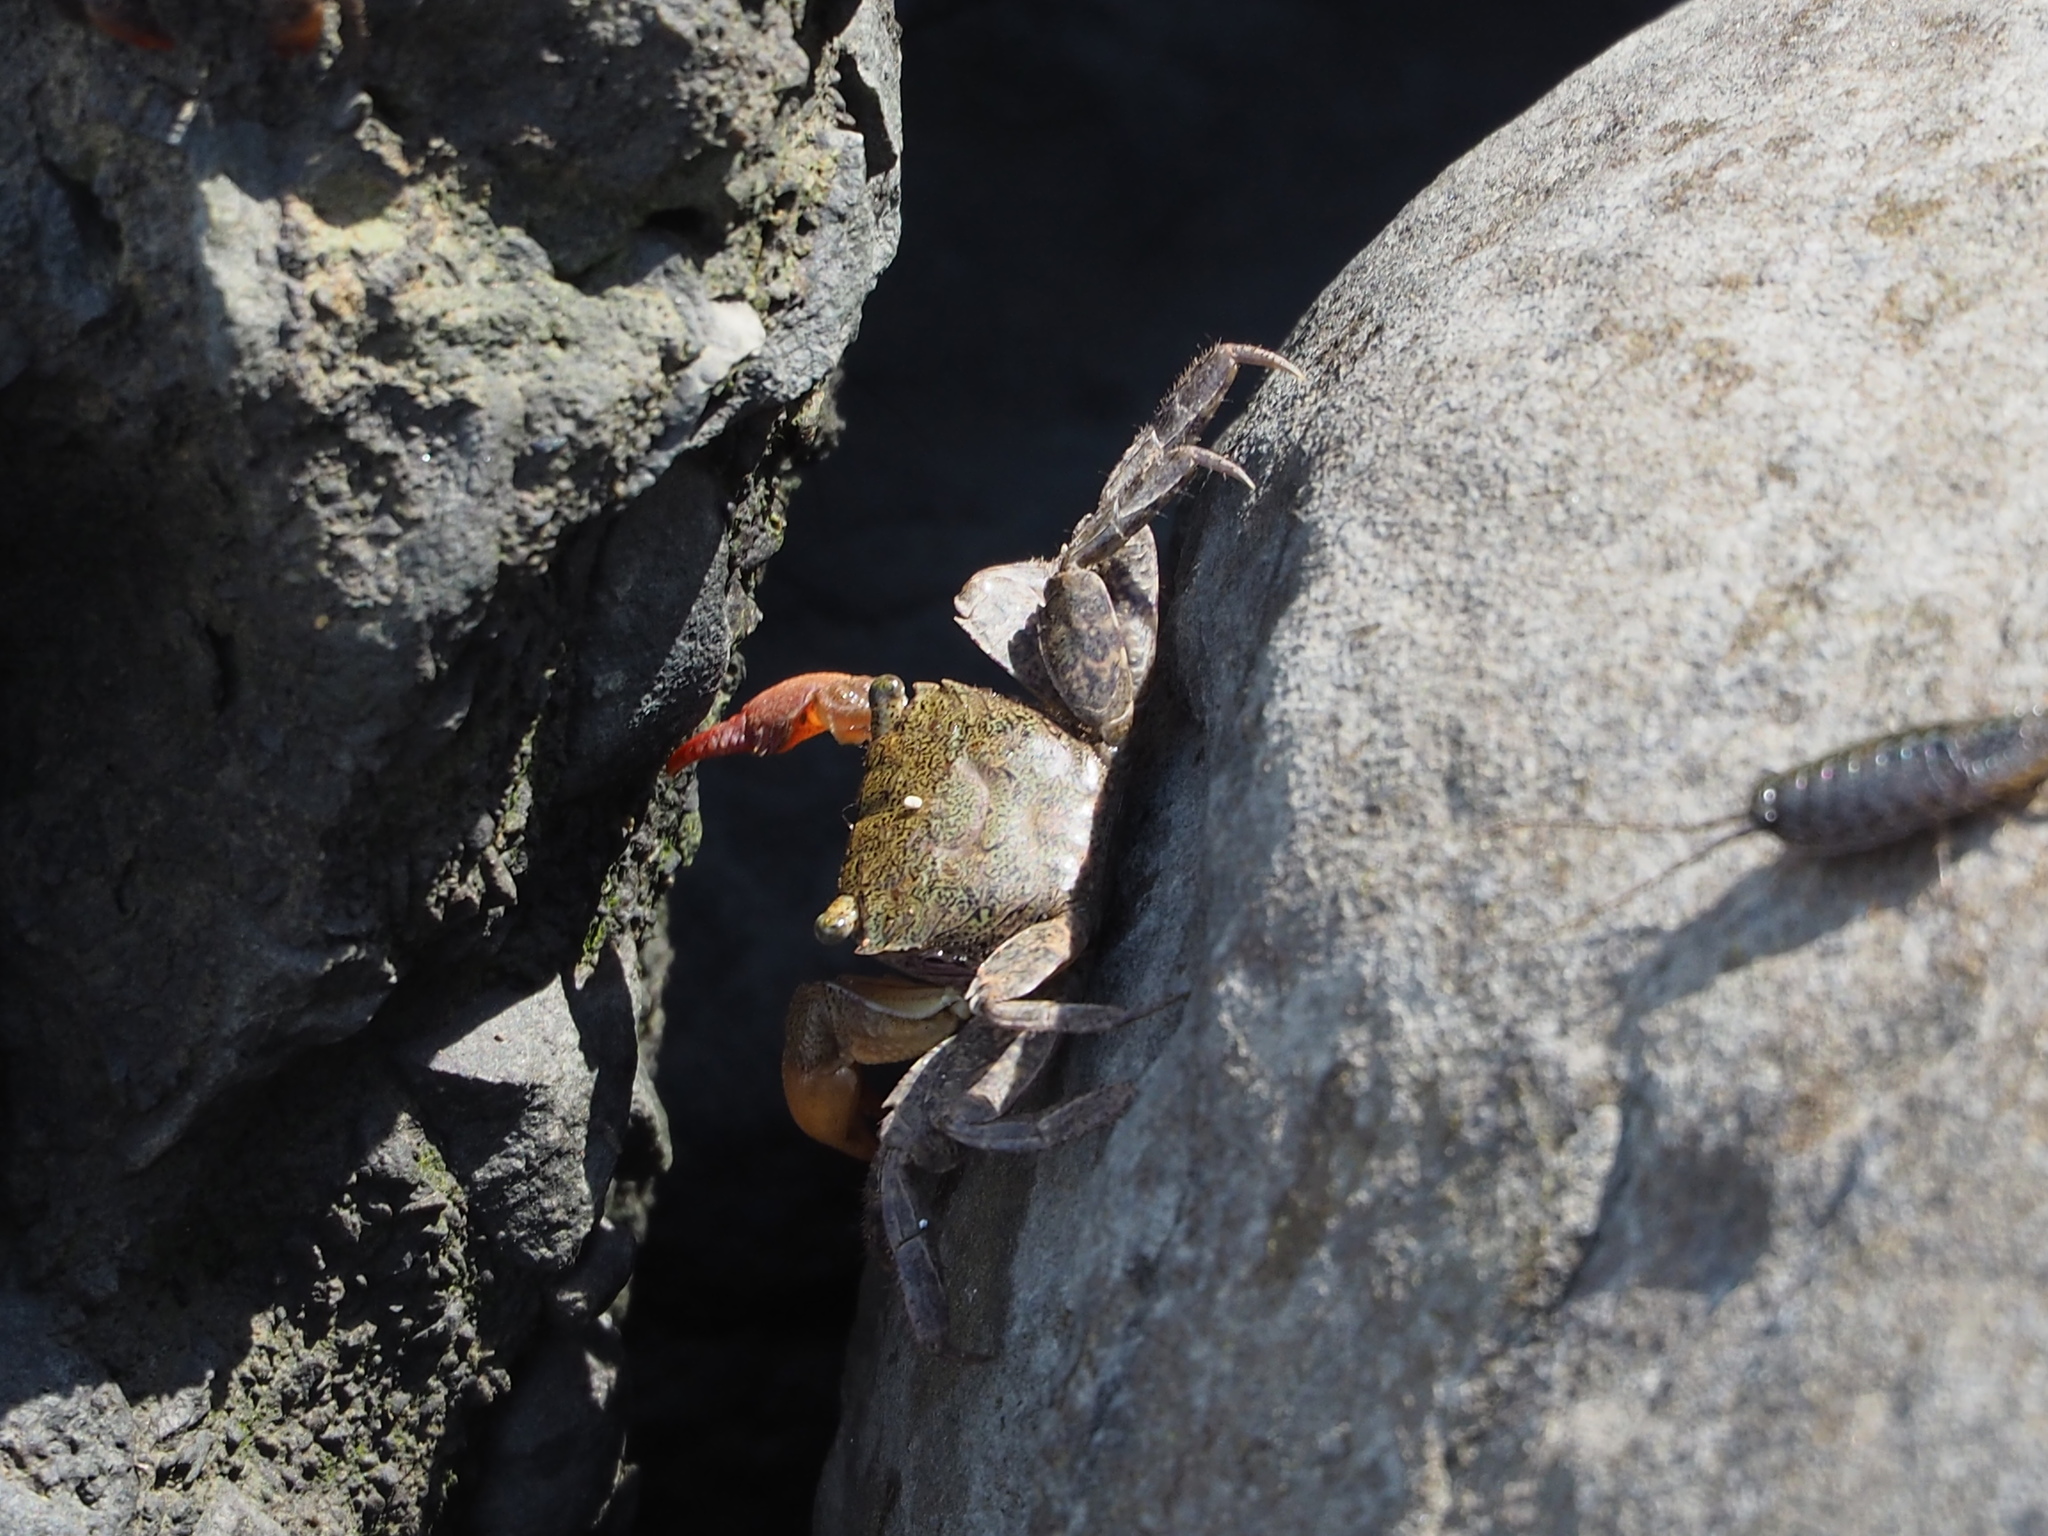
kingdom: Animalia
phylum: Arthropoda
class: Malacostraca
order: Decapoda
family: Sesarmidae
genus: Parasesarma
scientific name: Parasesarma bidens
